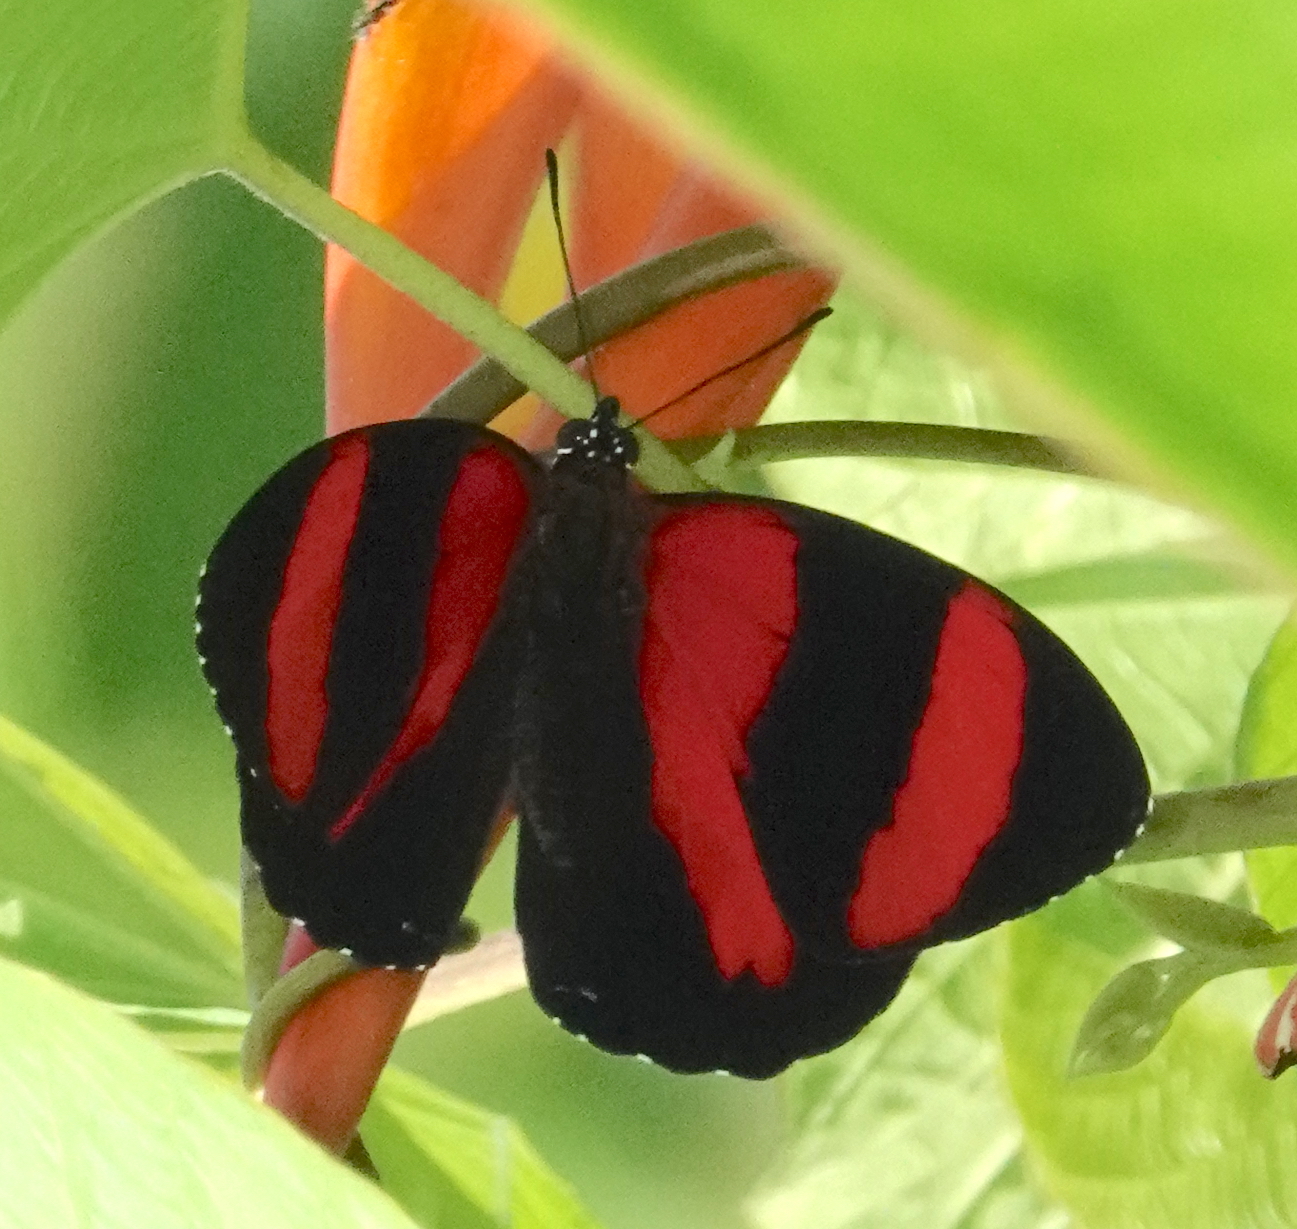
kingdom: Animalia
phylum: Arthropoda
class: Insecta
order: Lepidoptera
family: Nymphalidae
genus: Catagramma
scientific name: Catagramma Callicore pitheas
